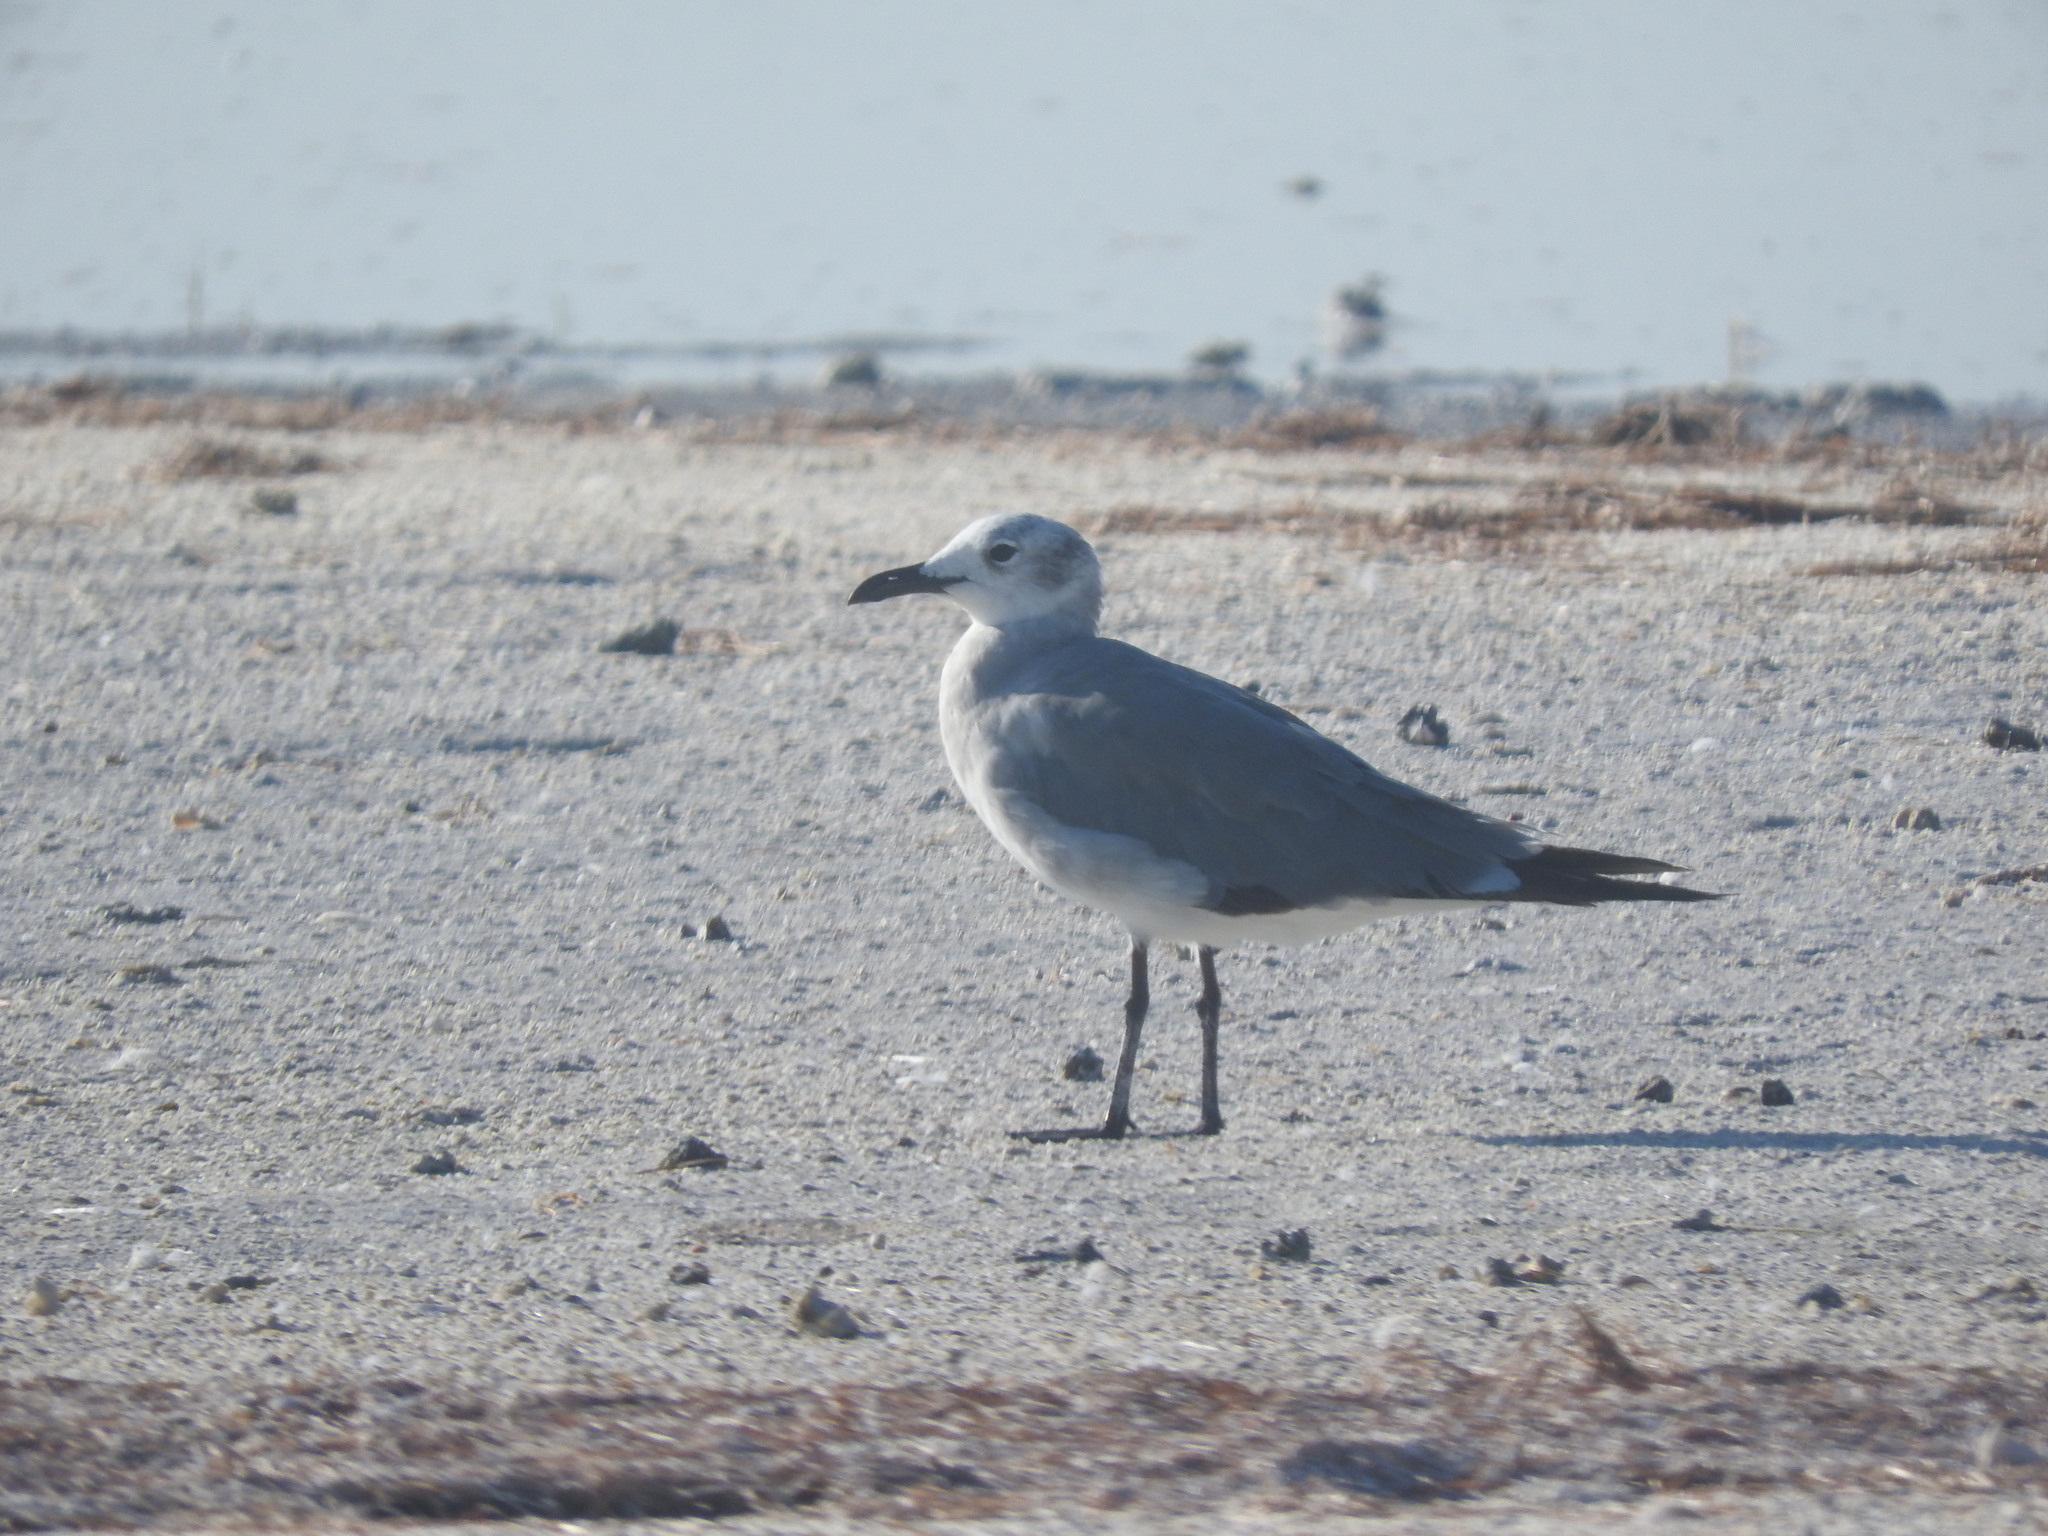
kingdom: Animalia
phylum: Chordata
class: Aves
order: Charadriiformes
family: Laridae
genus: Leucophaeus
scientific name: Leucophaeus atricilla
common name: Laughing gull
